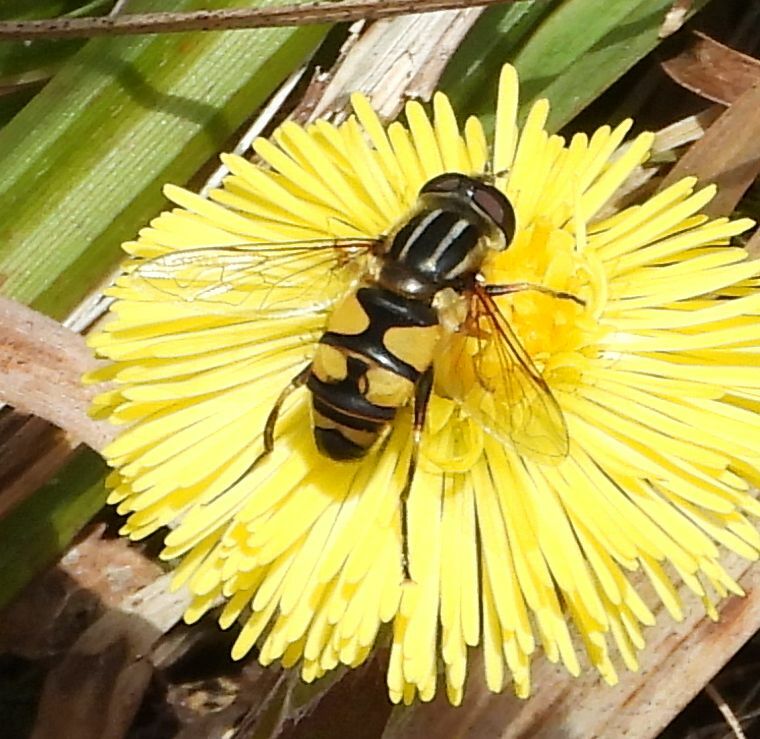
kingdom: Animalia
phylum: Arthropoda
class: Insecta
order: Diptera
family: Syrphidae
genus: Helophilus
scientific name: Helophilus fasciatus
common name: Narrow-headed marsh fly
